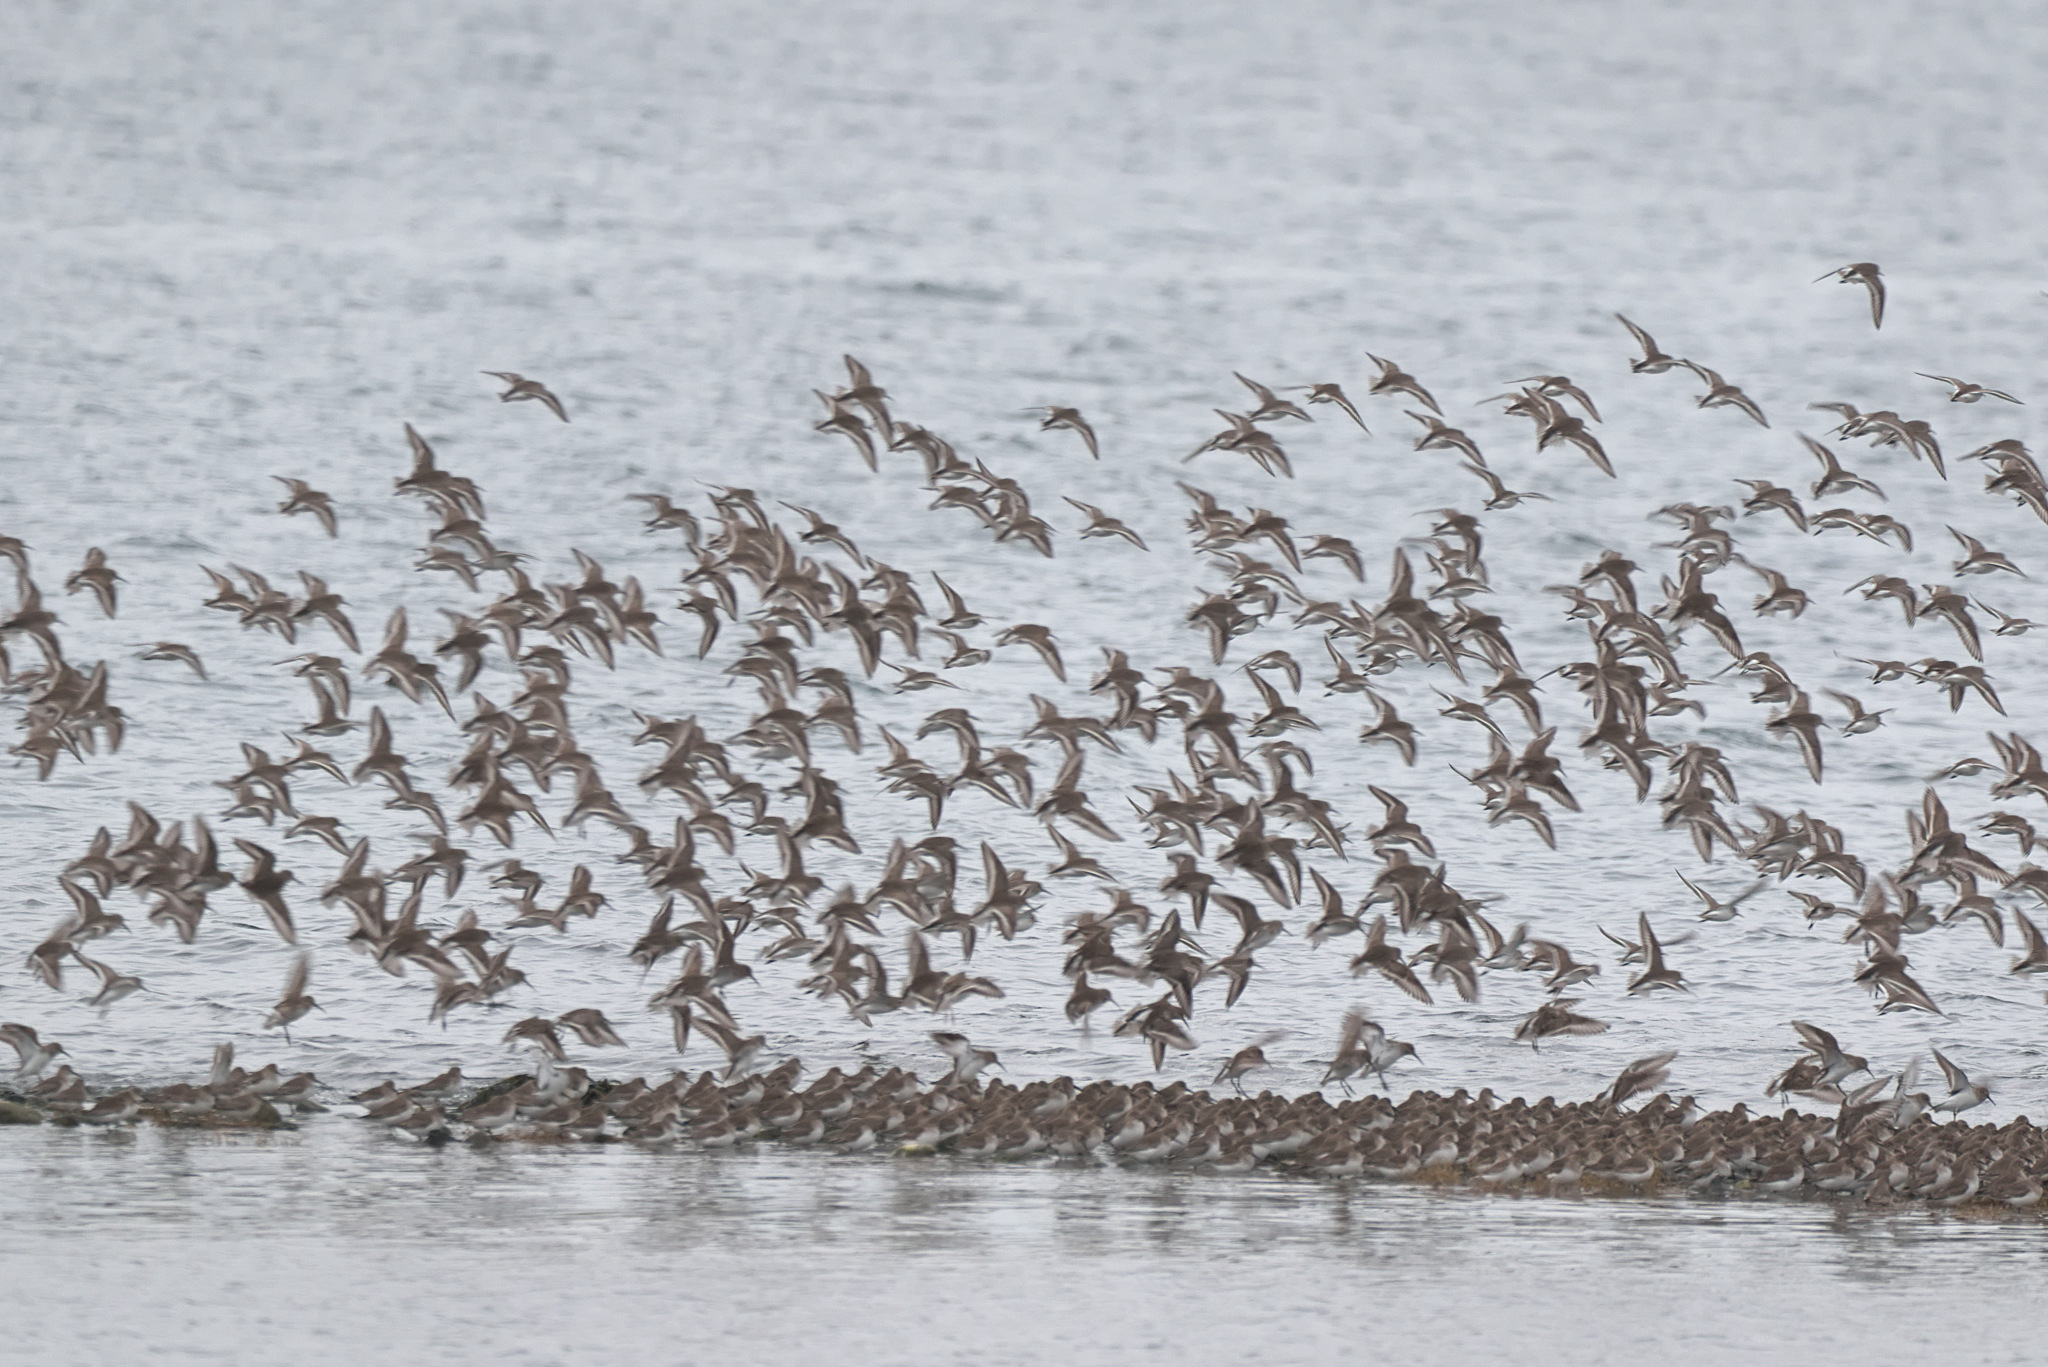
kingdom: Animalia
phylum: Chordata
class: Aves
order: Charadriiformes
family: Scolopacidae
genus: Calidris
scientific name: Calidris alpina
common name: Dunlin
